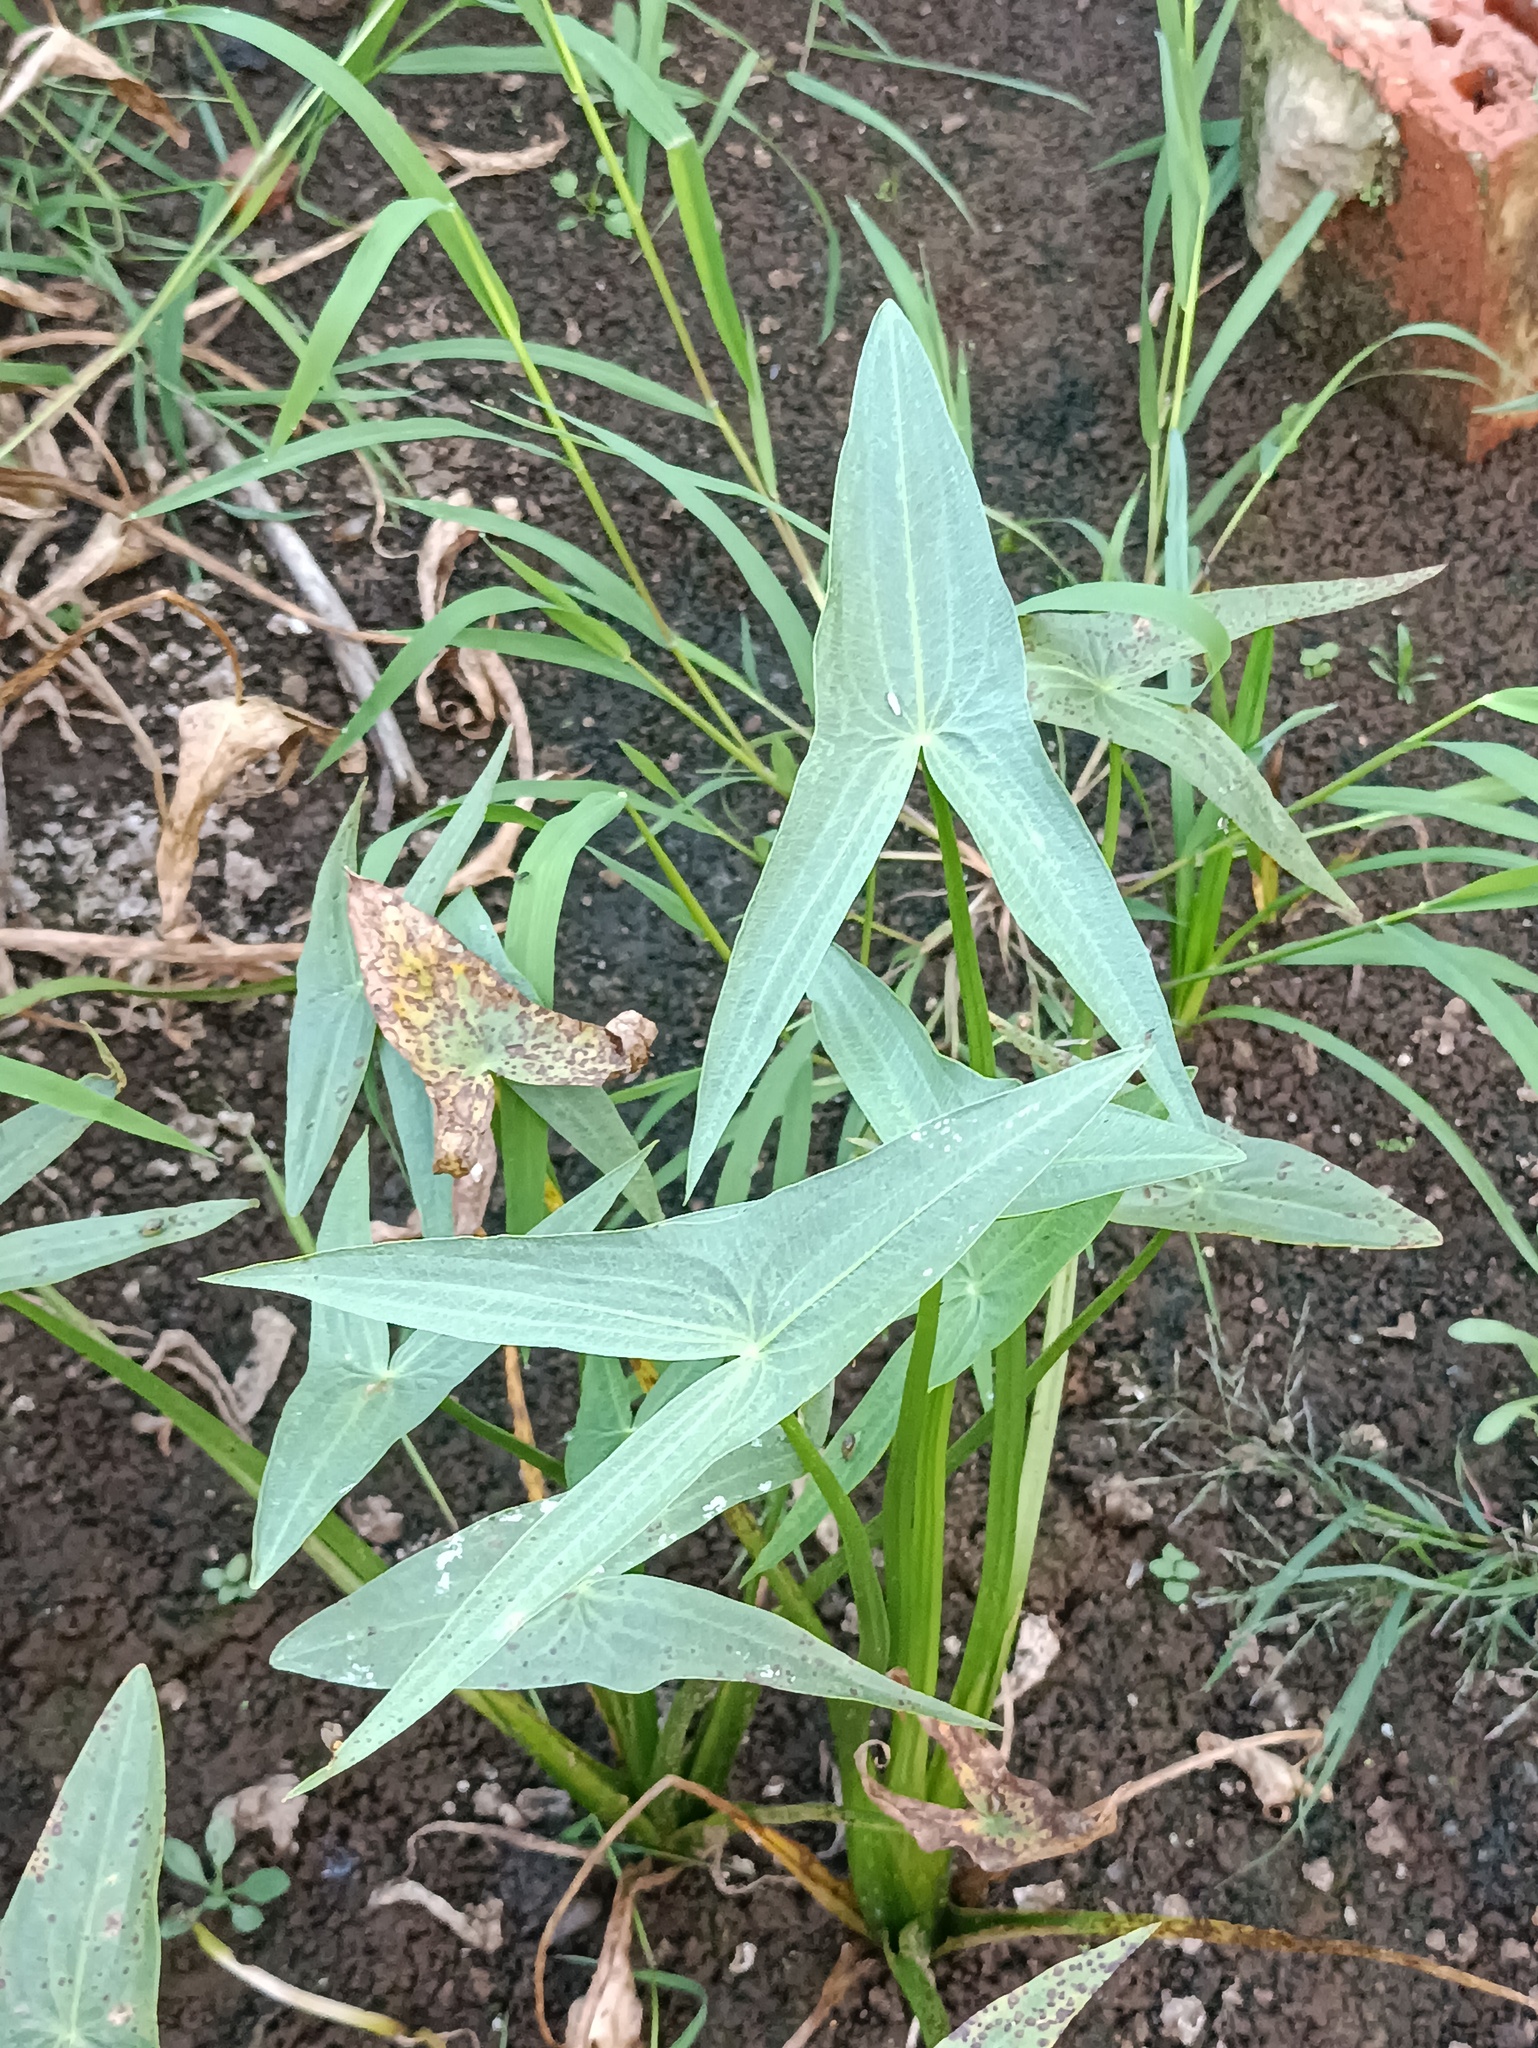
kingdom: Plantae
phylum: Tracheophyta
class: Liliopsida
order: Alismatales
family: Alismataceae
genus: Sagittaria
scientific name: Sagittaria sagittifolia
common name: Arrowhead
